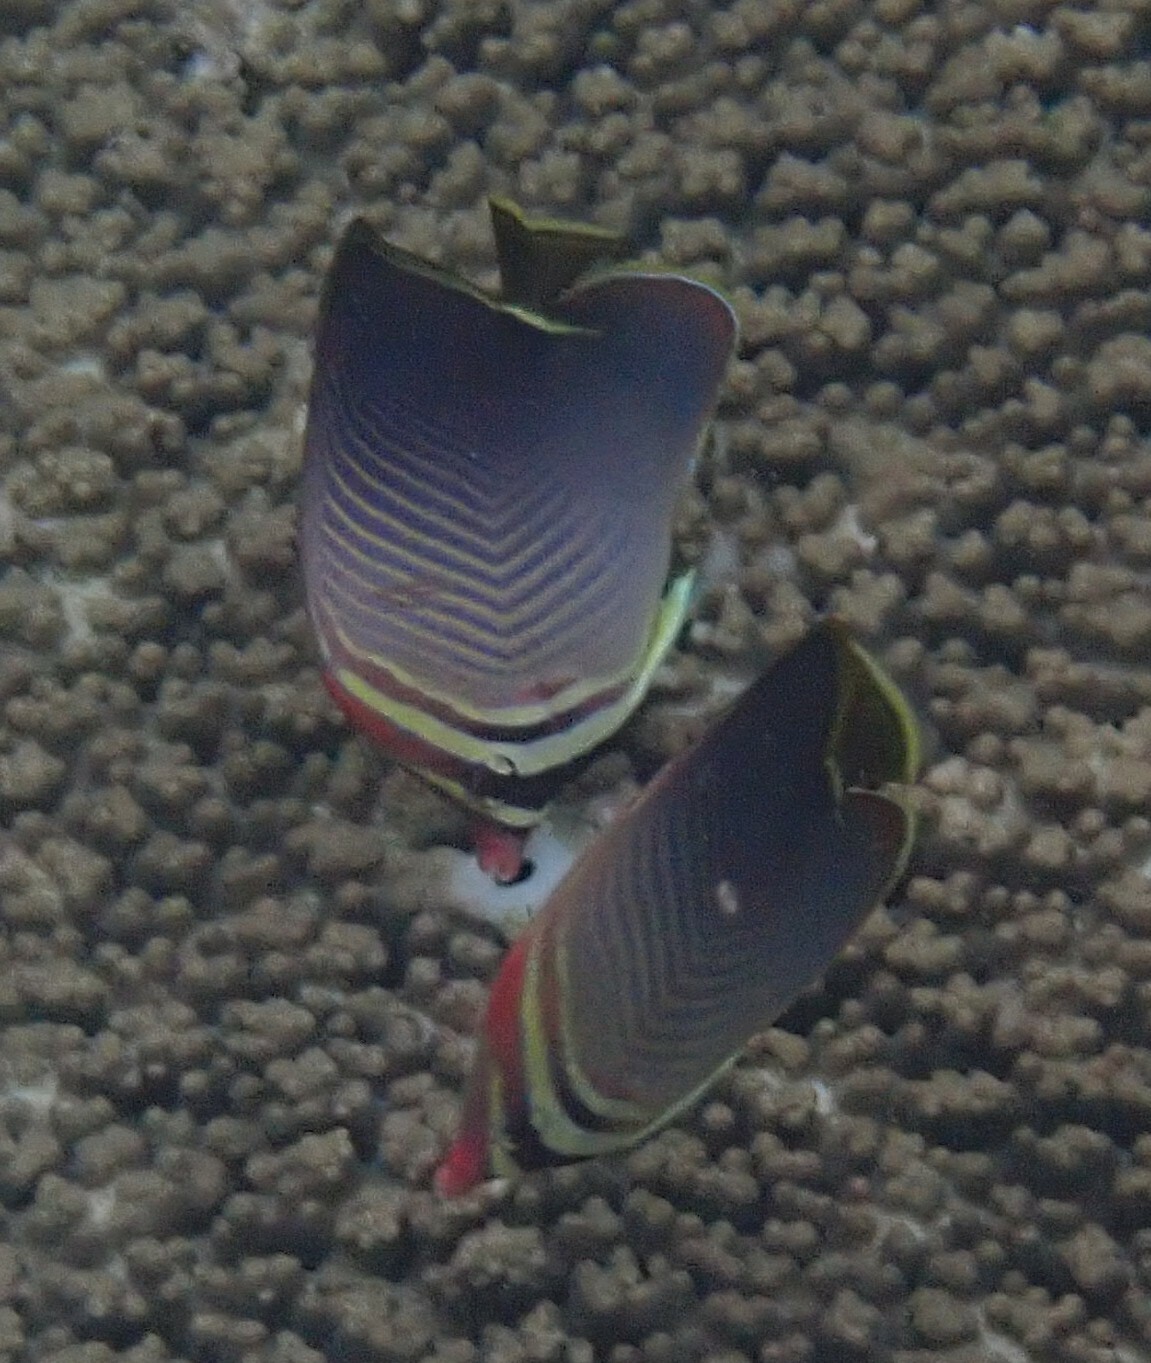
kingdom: Animalia
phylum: Chordata
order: Perciformes
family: Chaetodontidae
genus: Chaetodon
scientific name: Chaetodon baronessa
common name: Triangular butterflyfish
